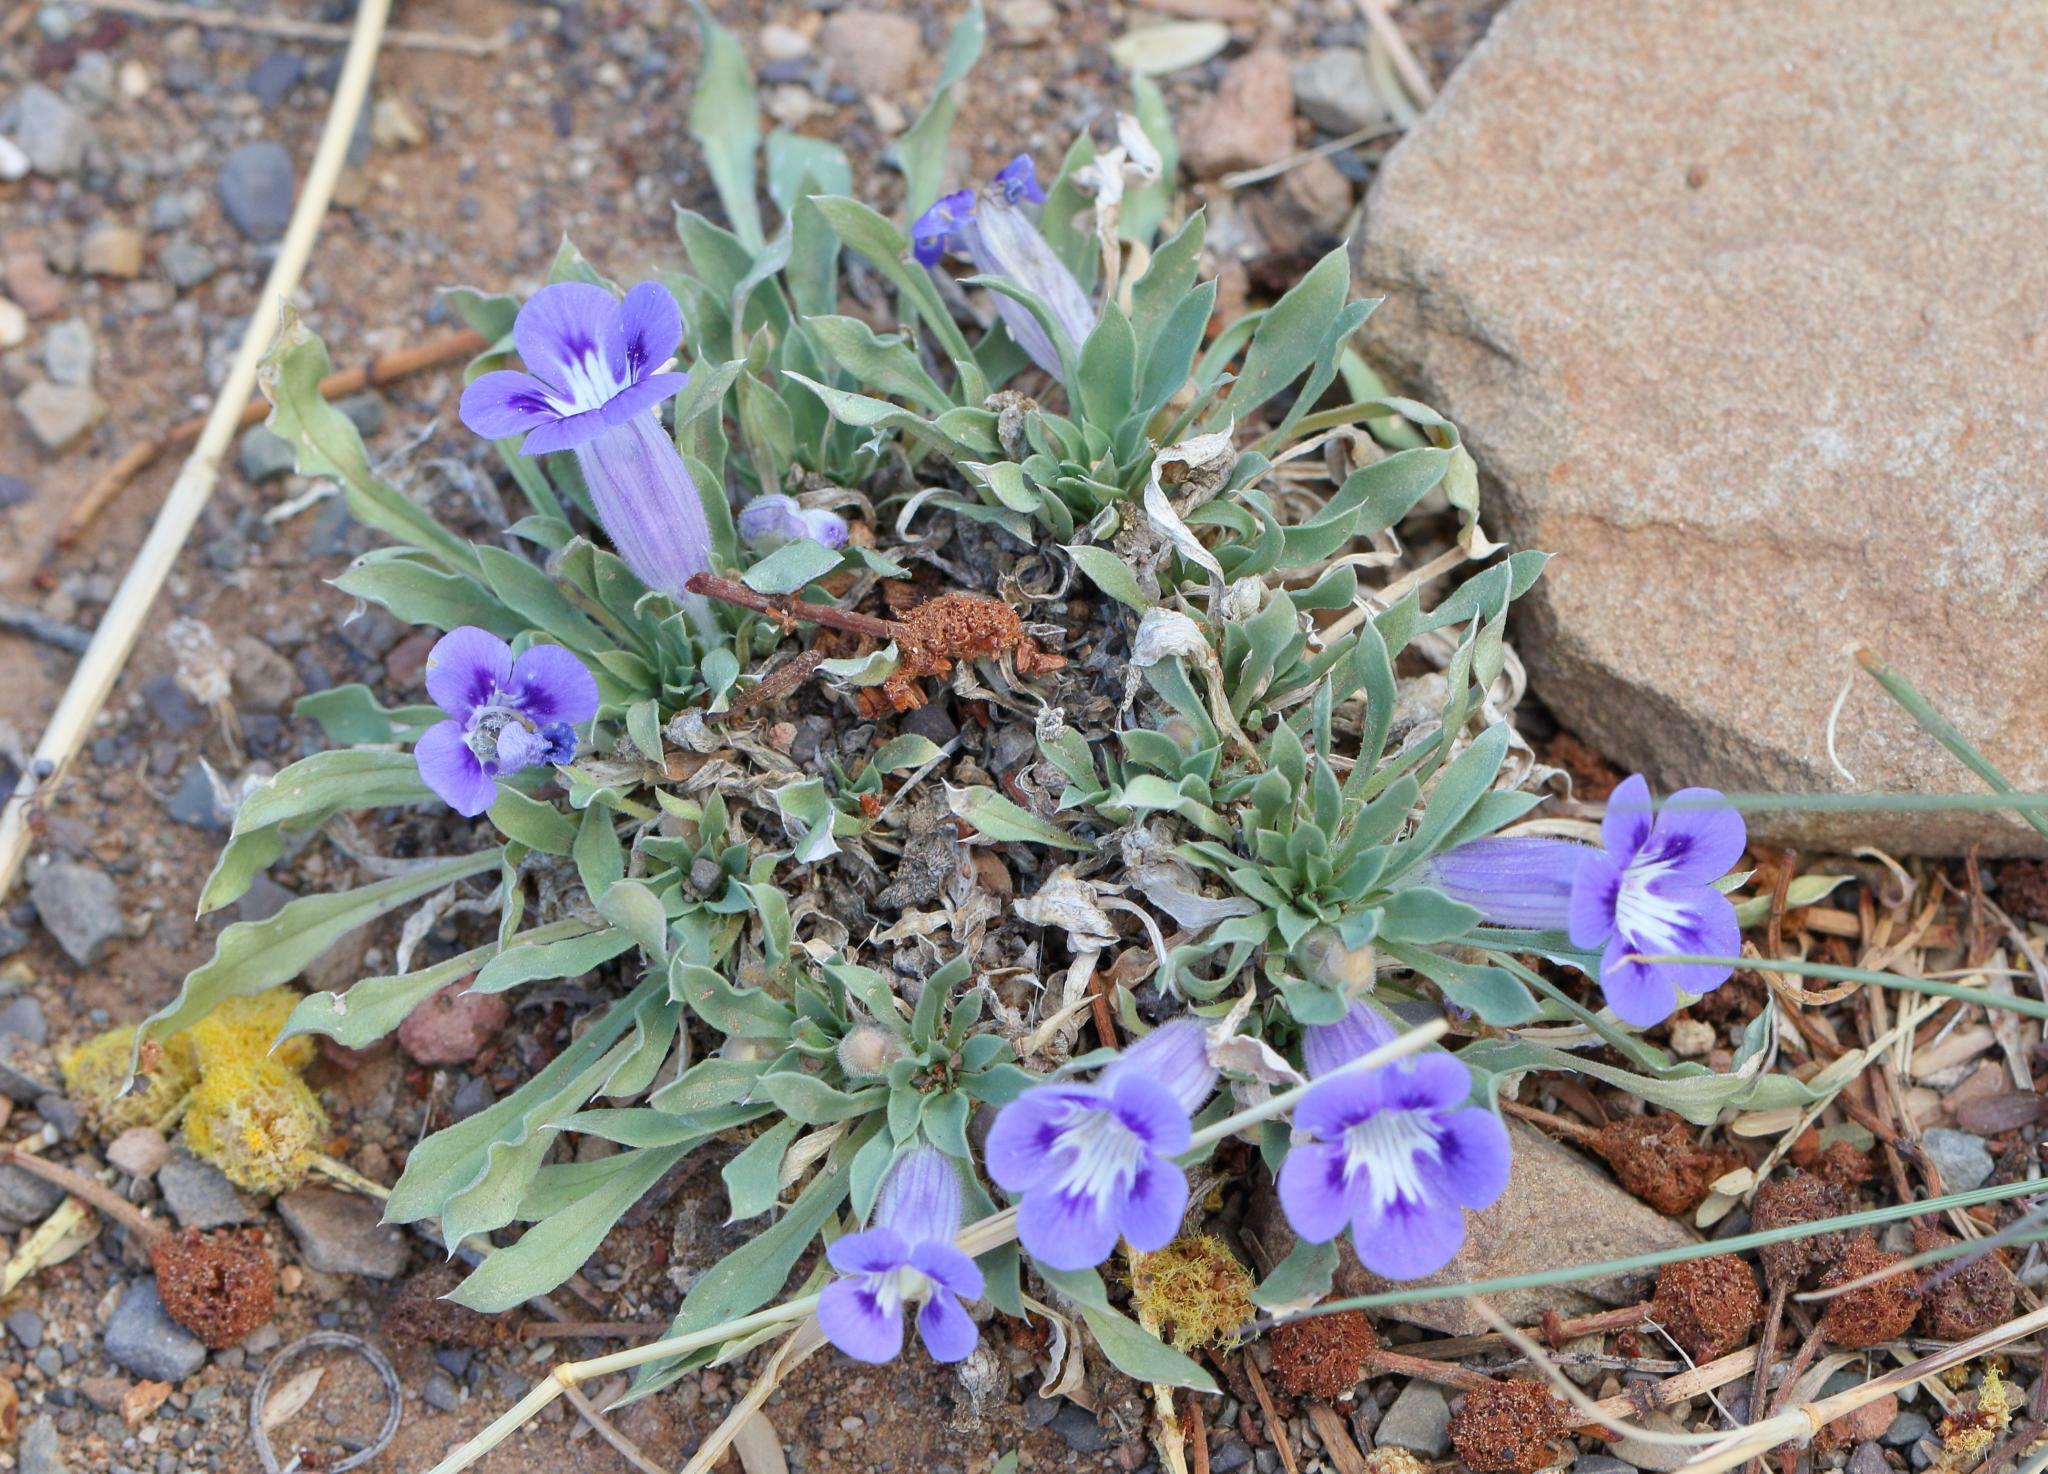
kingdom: Plantae
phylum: Tracheophyta
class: Magnoliopsida
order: Lamiales
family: Scrophulariaceae
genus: Aptosimum
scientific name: Aptosimum indivisum
